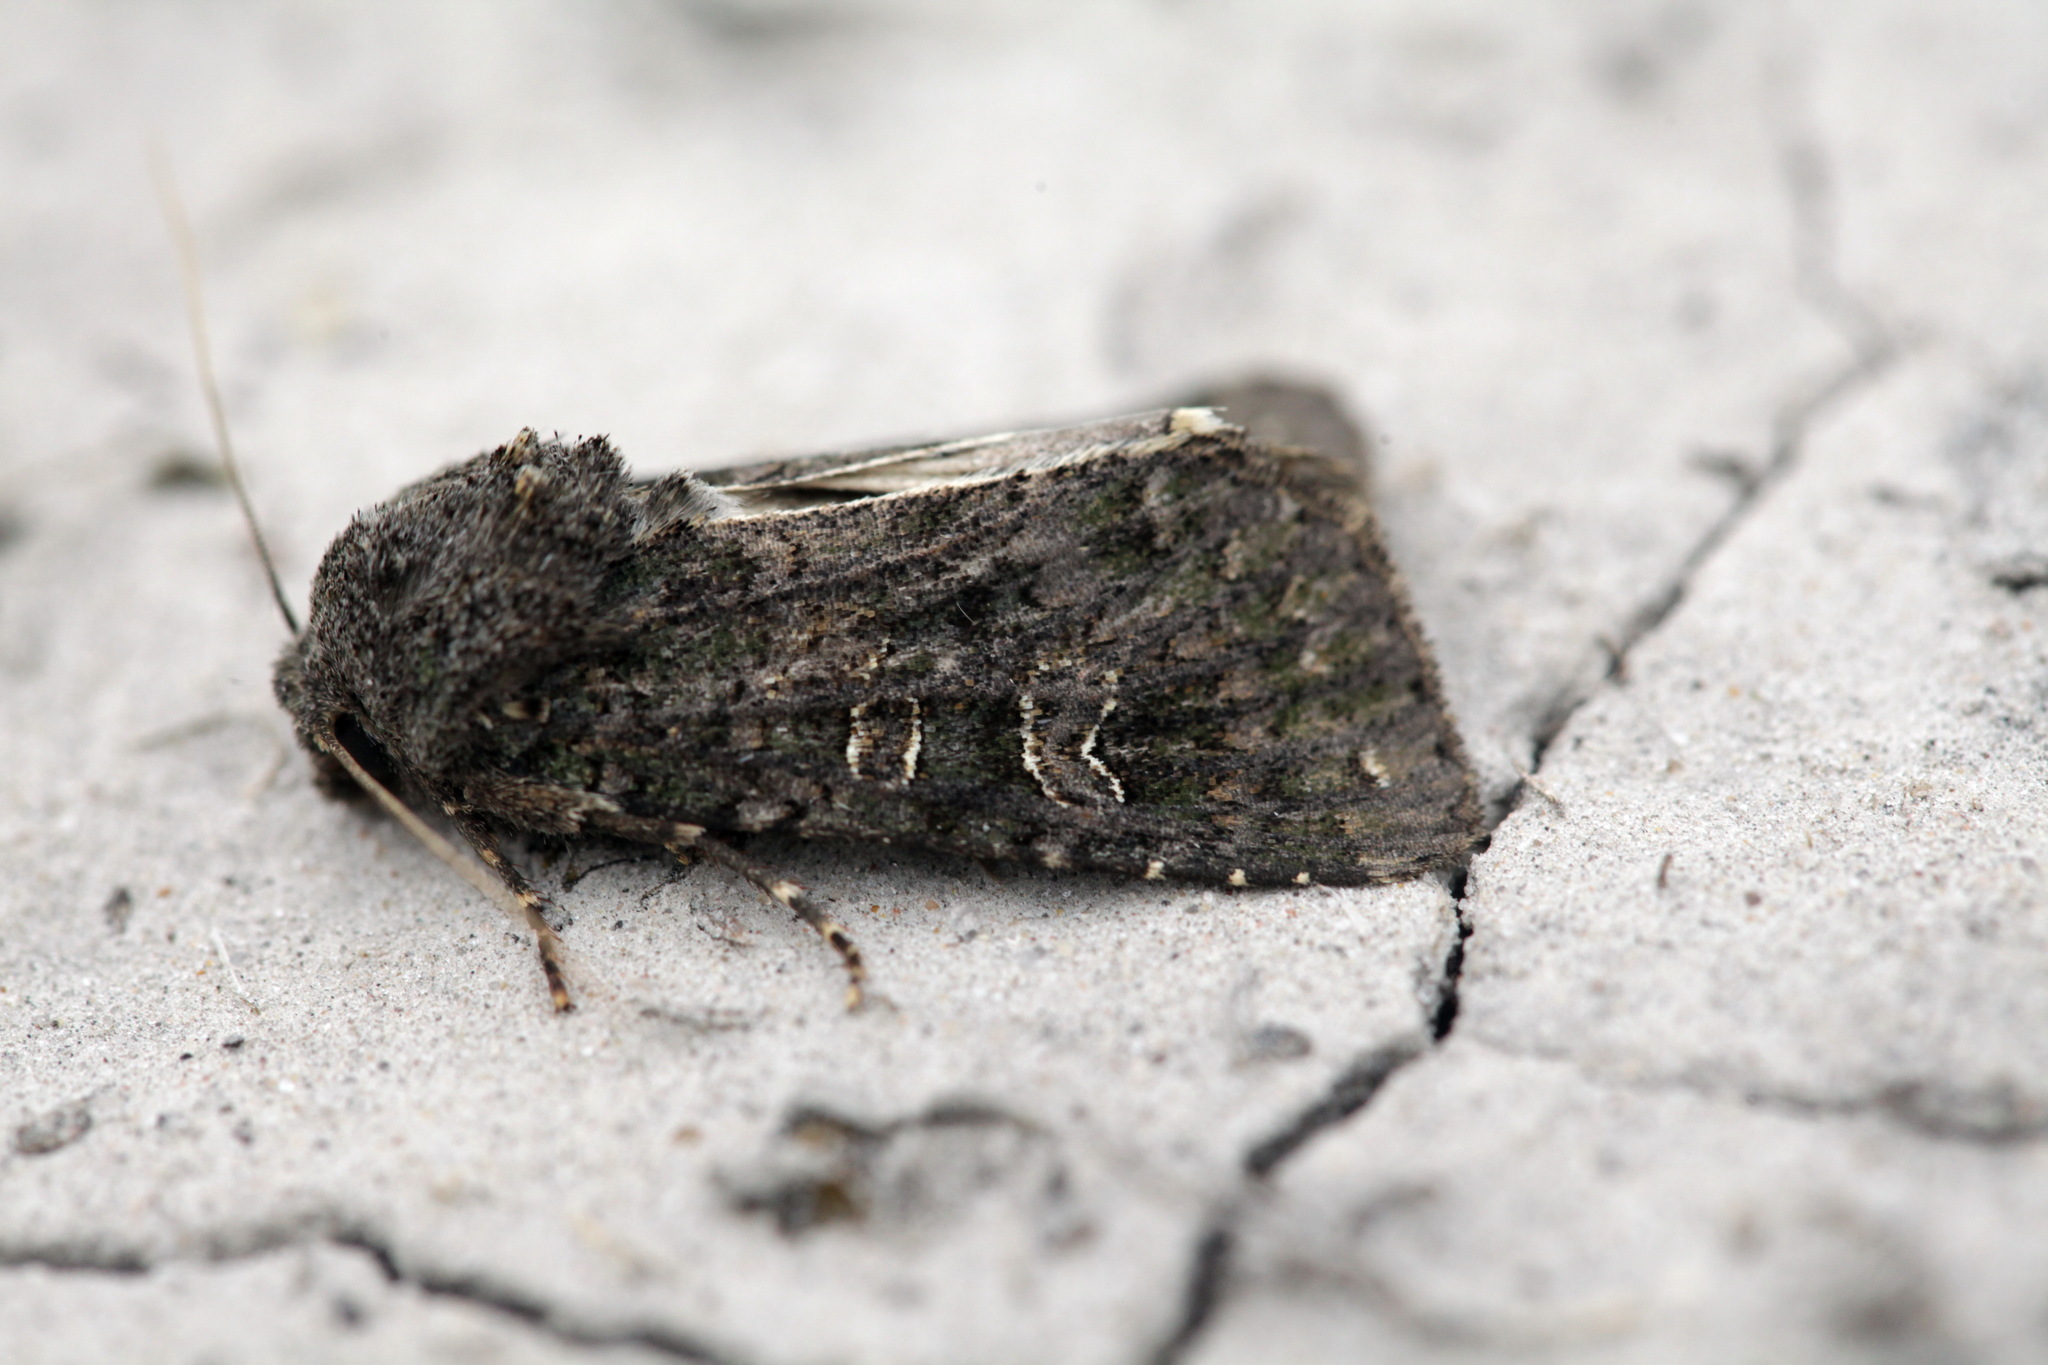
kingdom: Animalia
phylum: Arthropoda
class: Insecta
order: Lepidoptera
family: Noctuidae
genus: Sidemia
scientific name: Sidemia spilogramma
